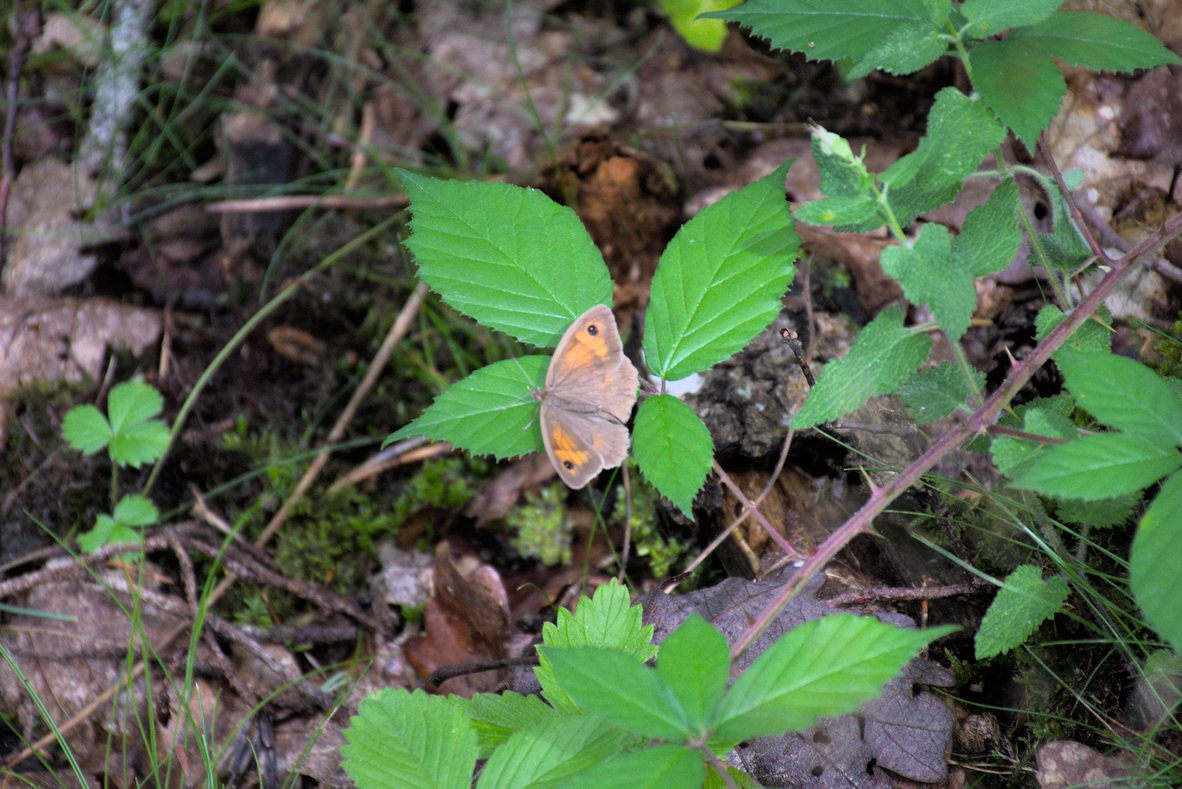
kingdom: Animalia
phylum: Arthropoda
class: Insecta
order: Lepidoptera
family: Nymphalidae
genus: Maniola
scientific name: Maniola jurtina
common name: Meadow brown
